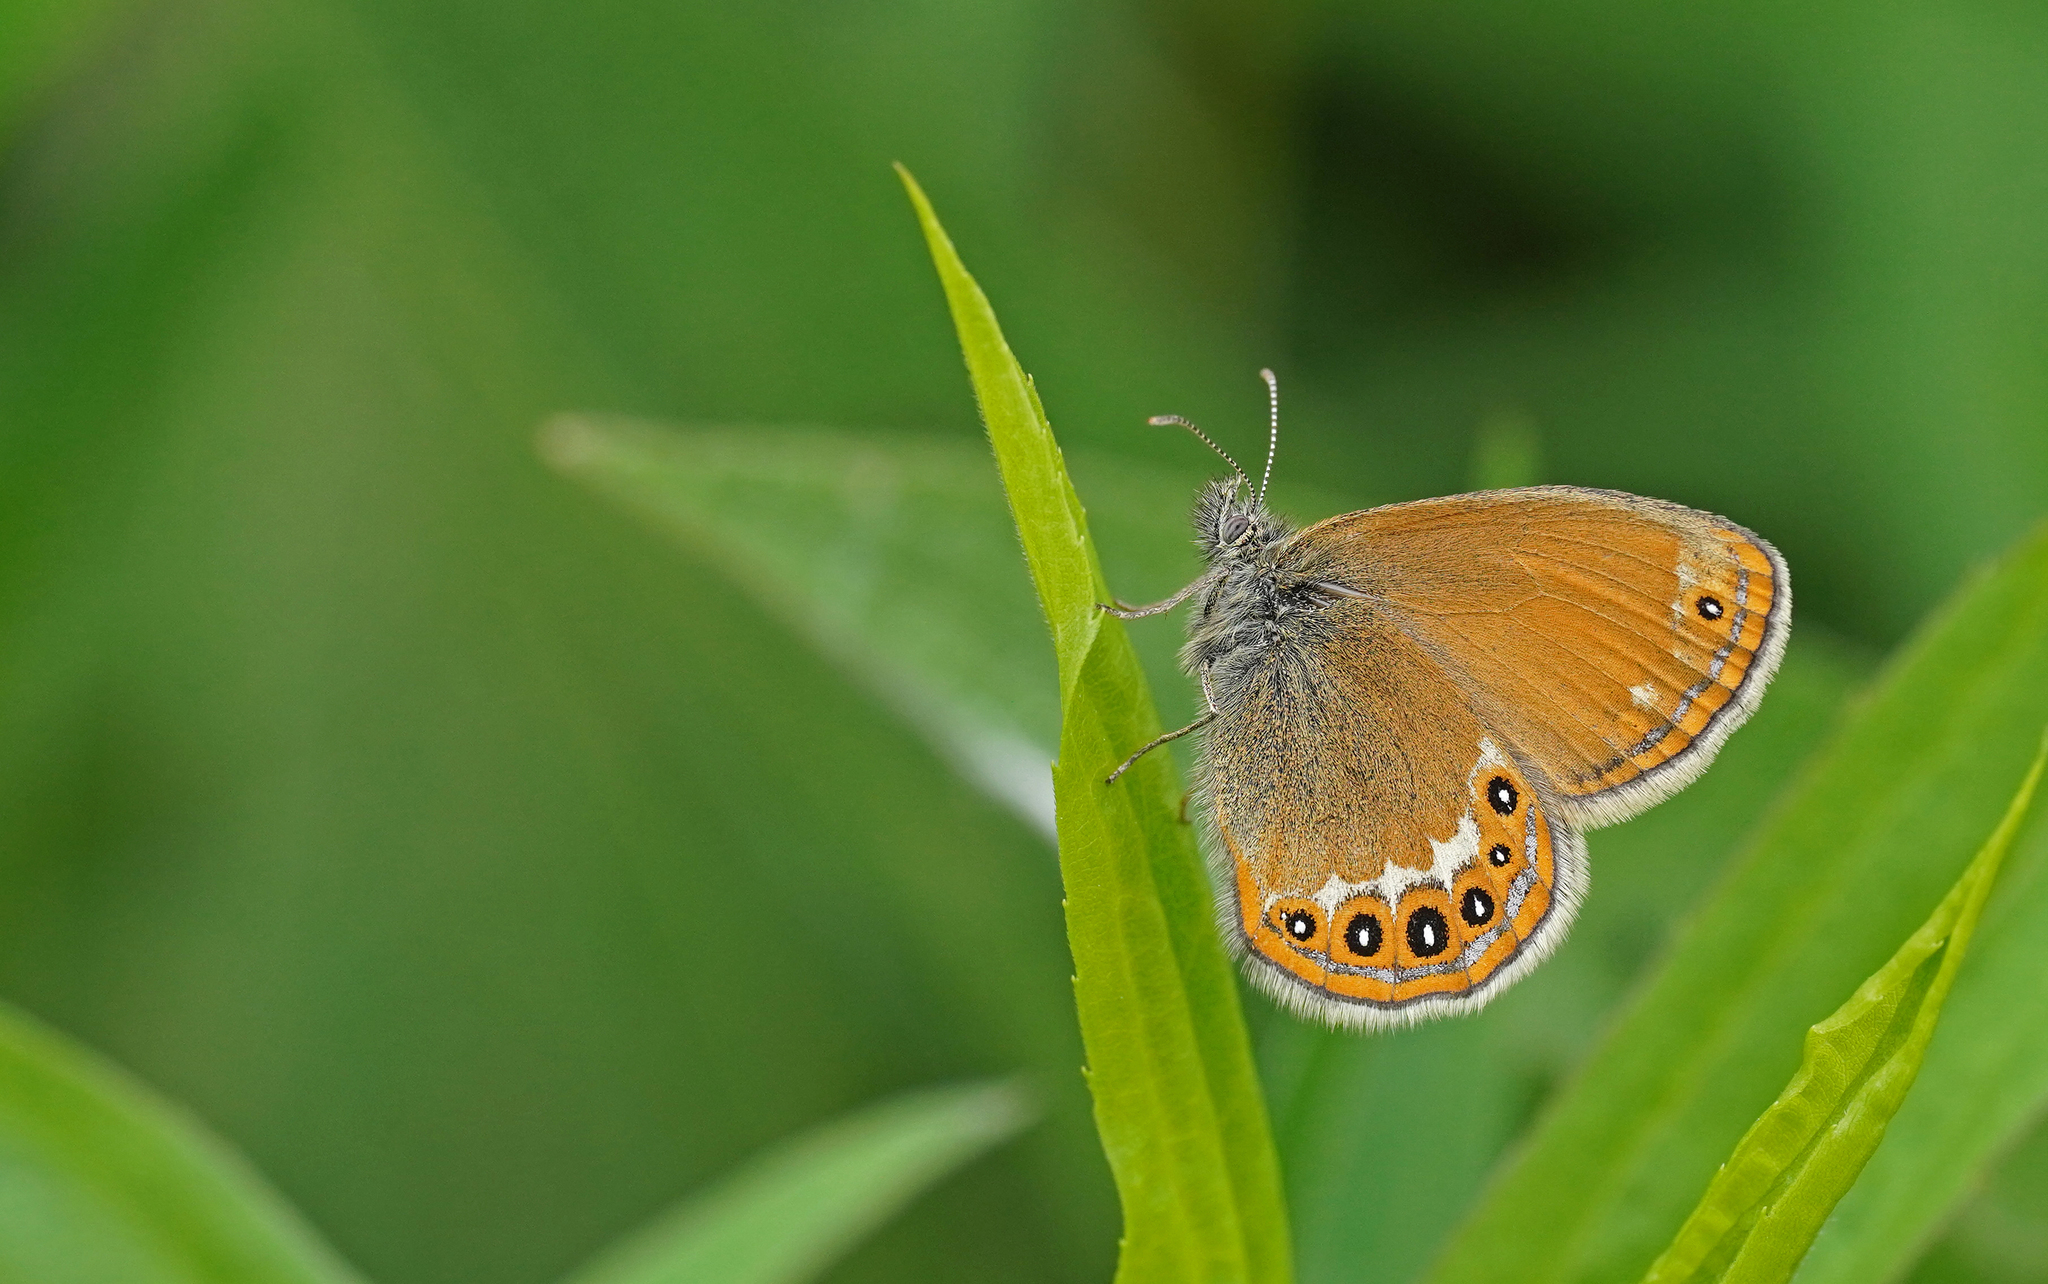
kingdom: Animalia
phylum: Arthropoda
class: Insecta
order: Lepidoptera
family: Nymphalidae
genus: Coenonympha
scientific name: Coenonympha hero
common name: Scarce heath
